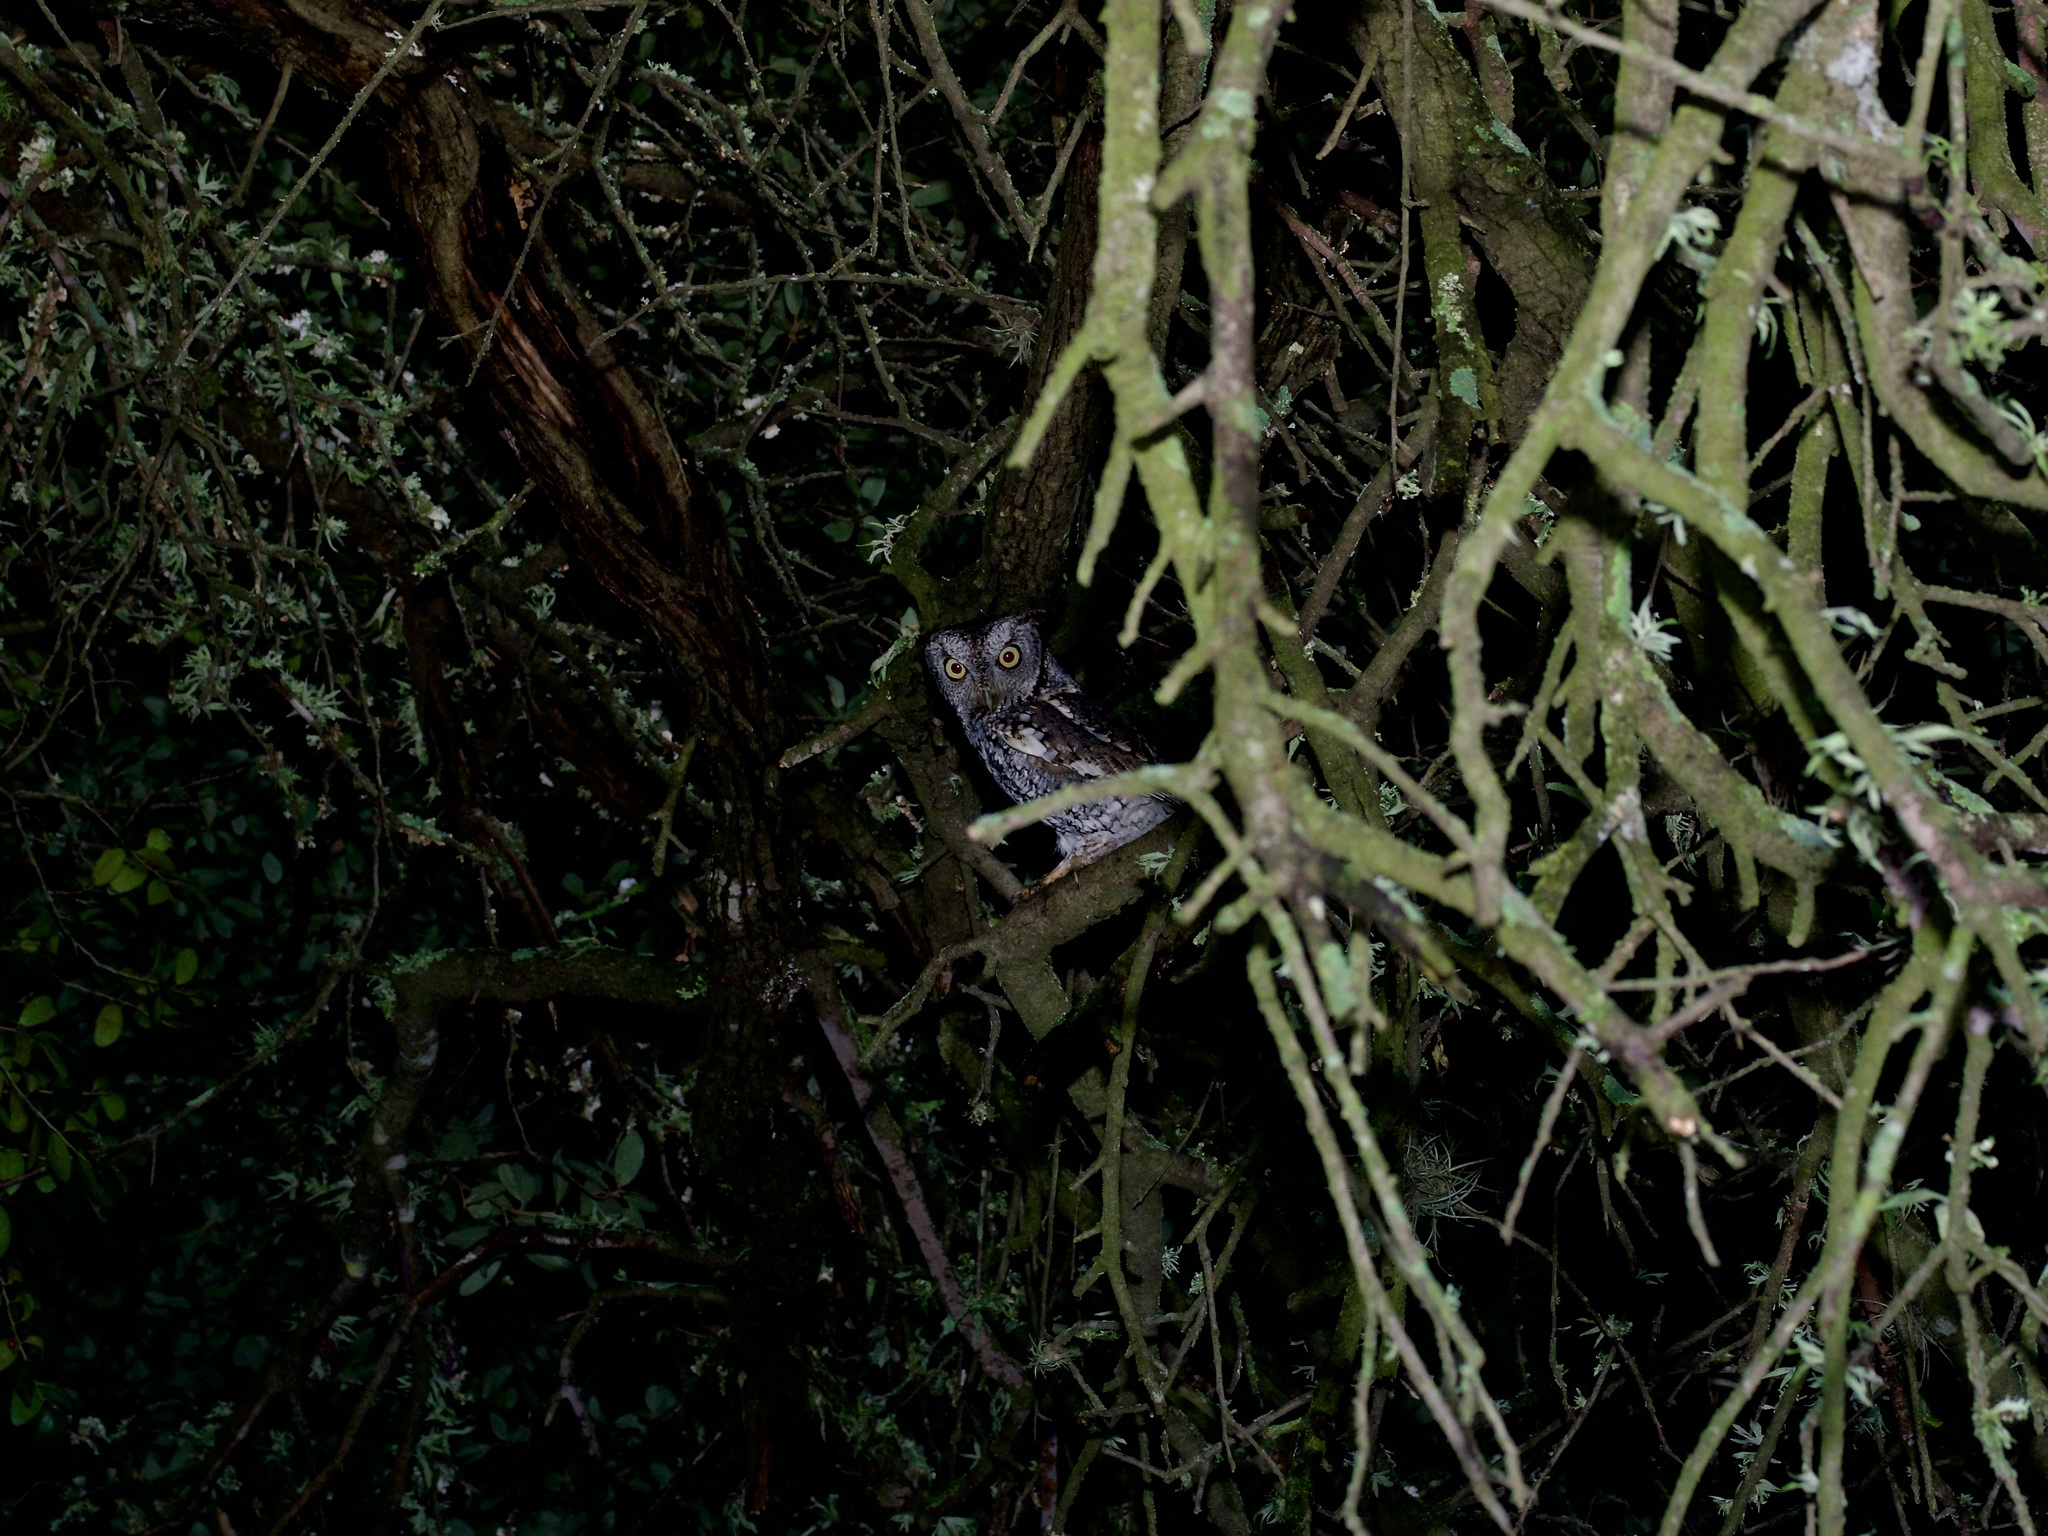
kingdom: Animalia
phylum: Chordata
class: Aves
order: Strigiformes
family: Strigidae
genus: Megascops
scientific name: Megascops asio
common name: Eastern screech-owl
